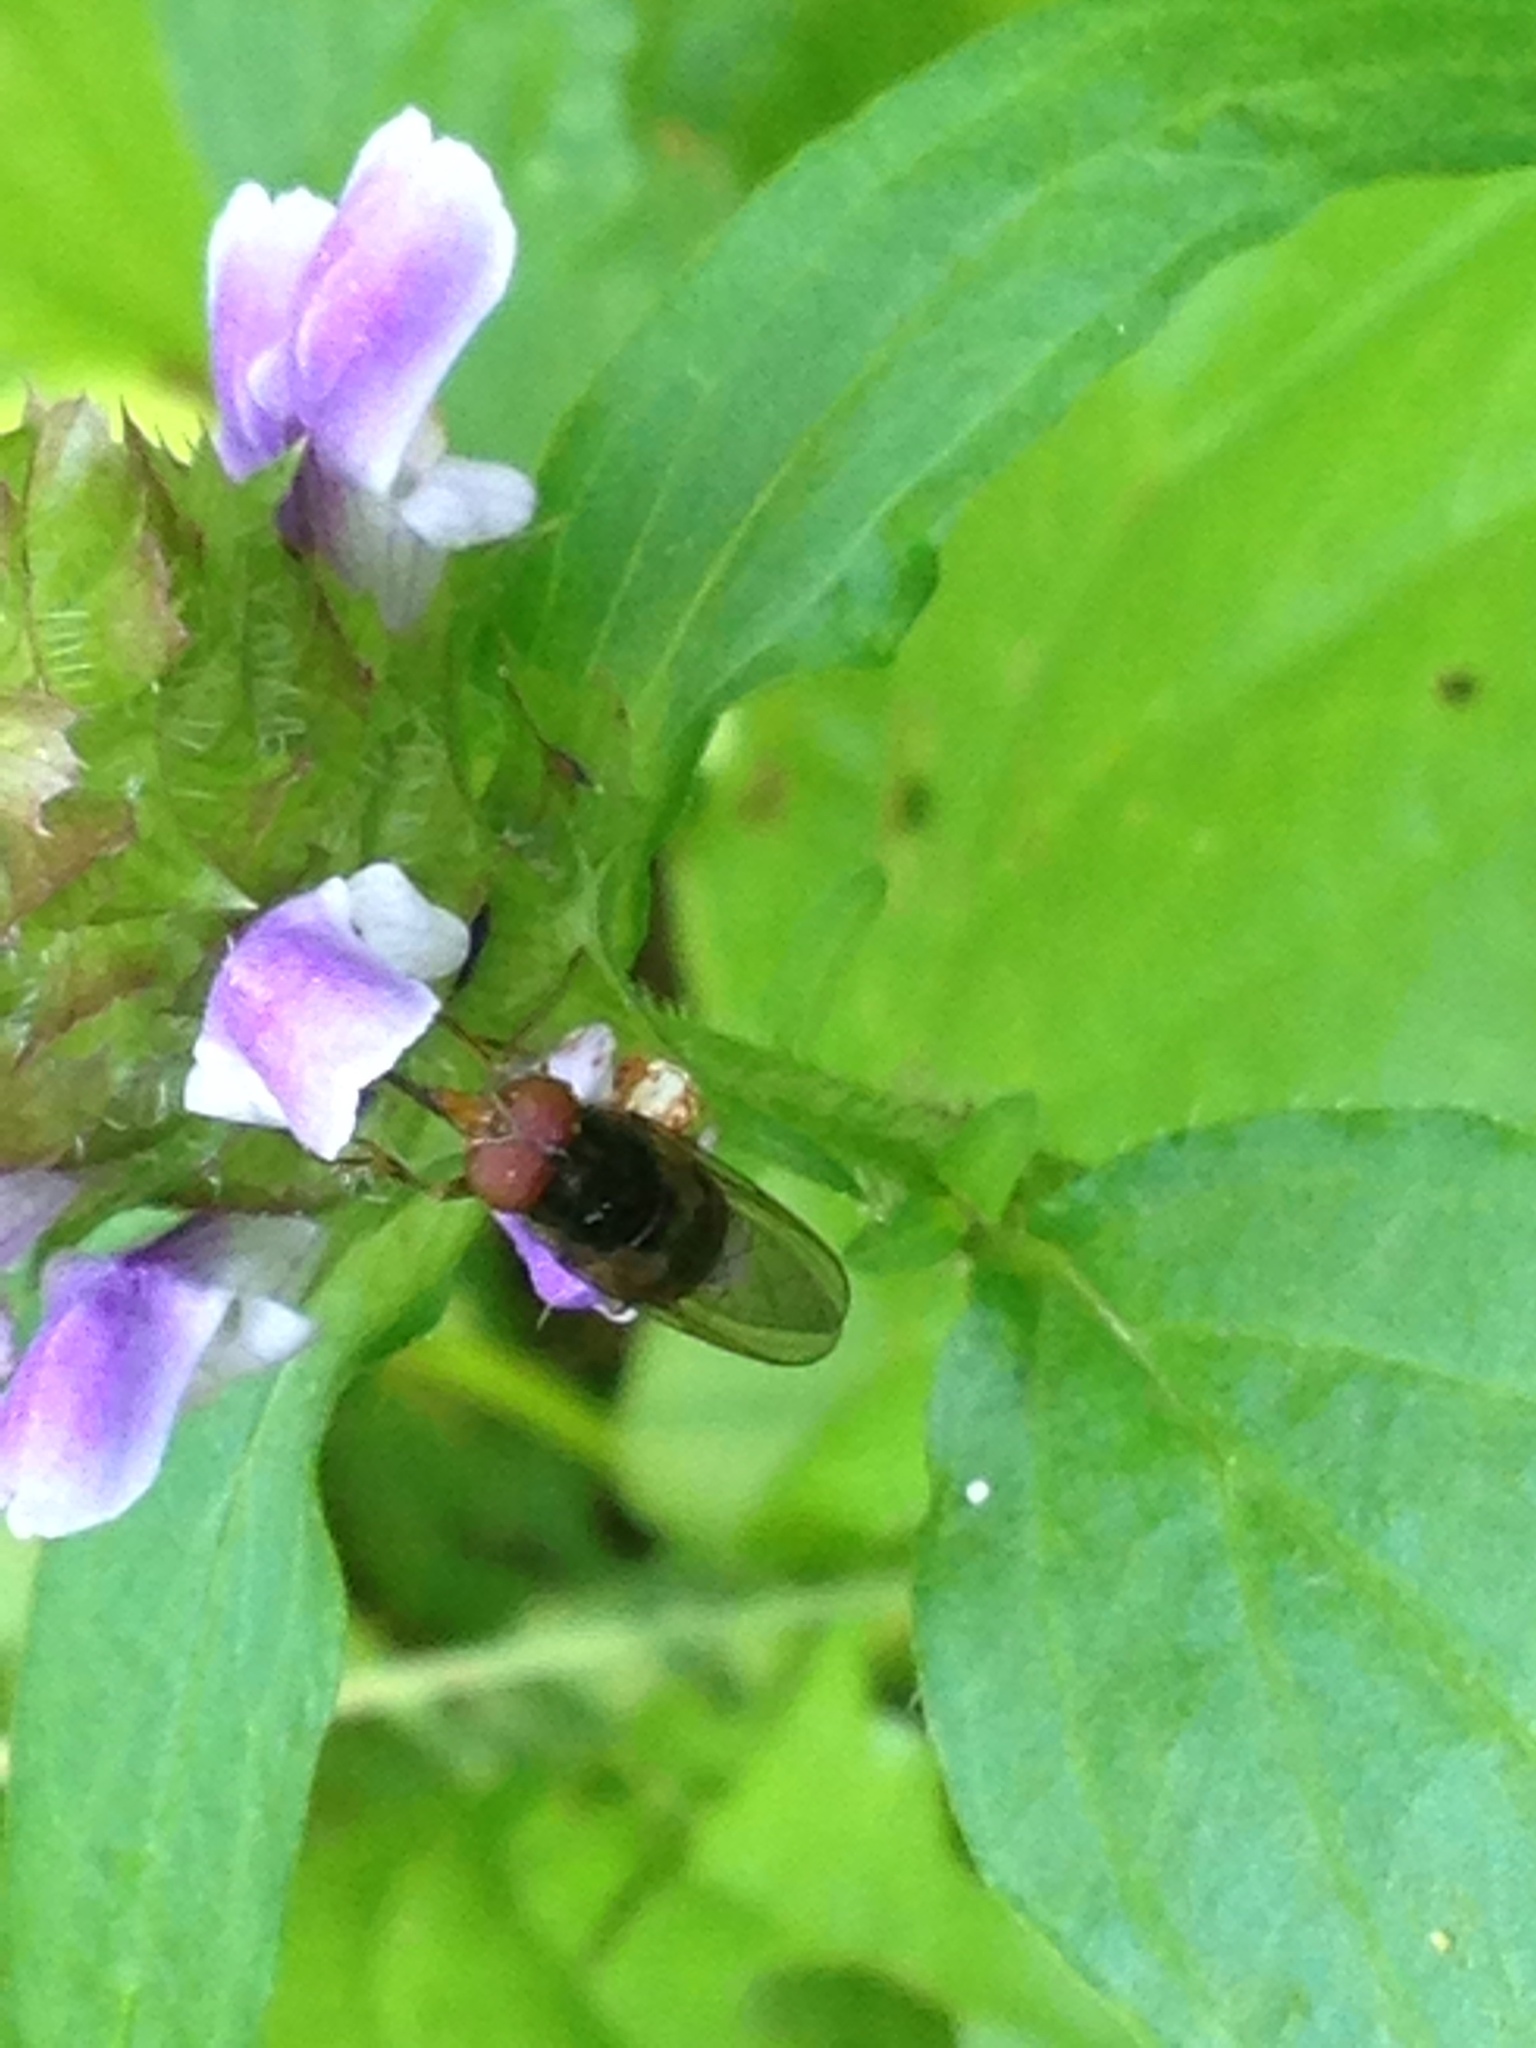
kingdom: Animalia
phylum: Arthropoda
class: Insecta
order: Diptera
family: Syrphidae
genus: Rhingia
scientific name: Rhingia nasica
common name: American snout fly
